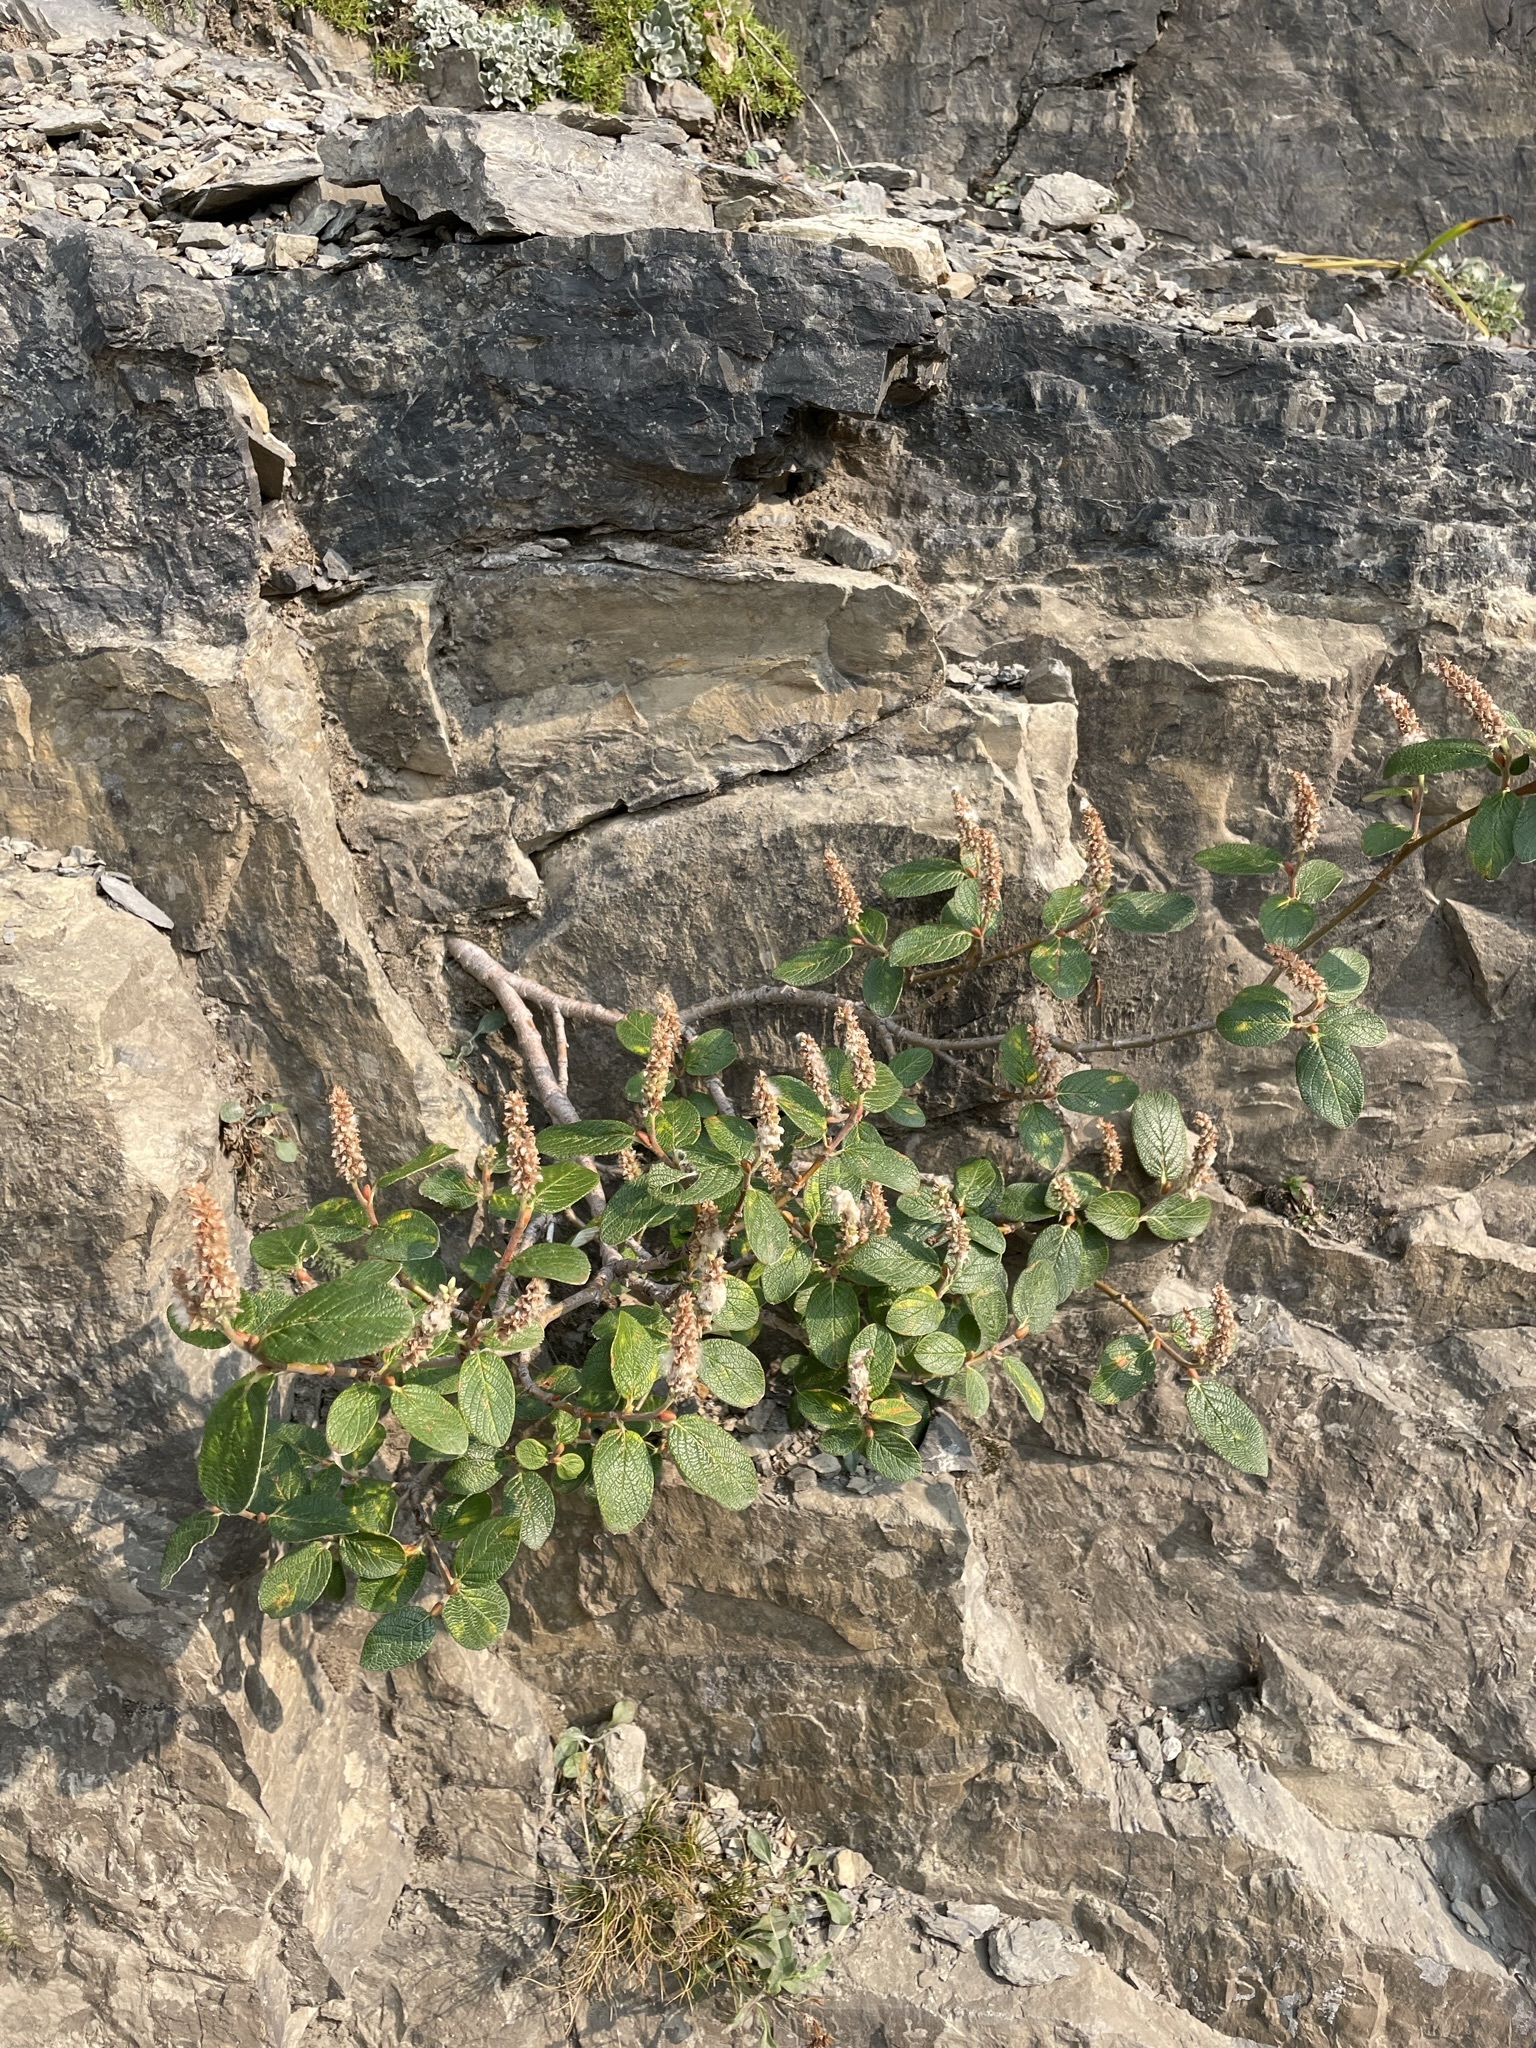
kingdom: Plantae
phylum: Tracheophyta
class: Magnoliopsida
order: Malpighiales
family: Salicaceae
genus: Salix
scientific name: Salix vestita
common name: Hairy willow
